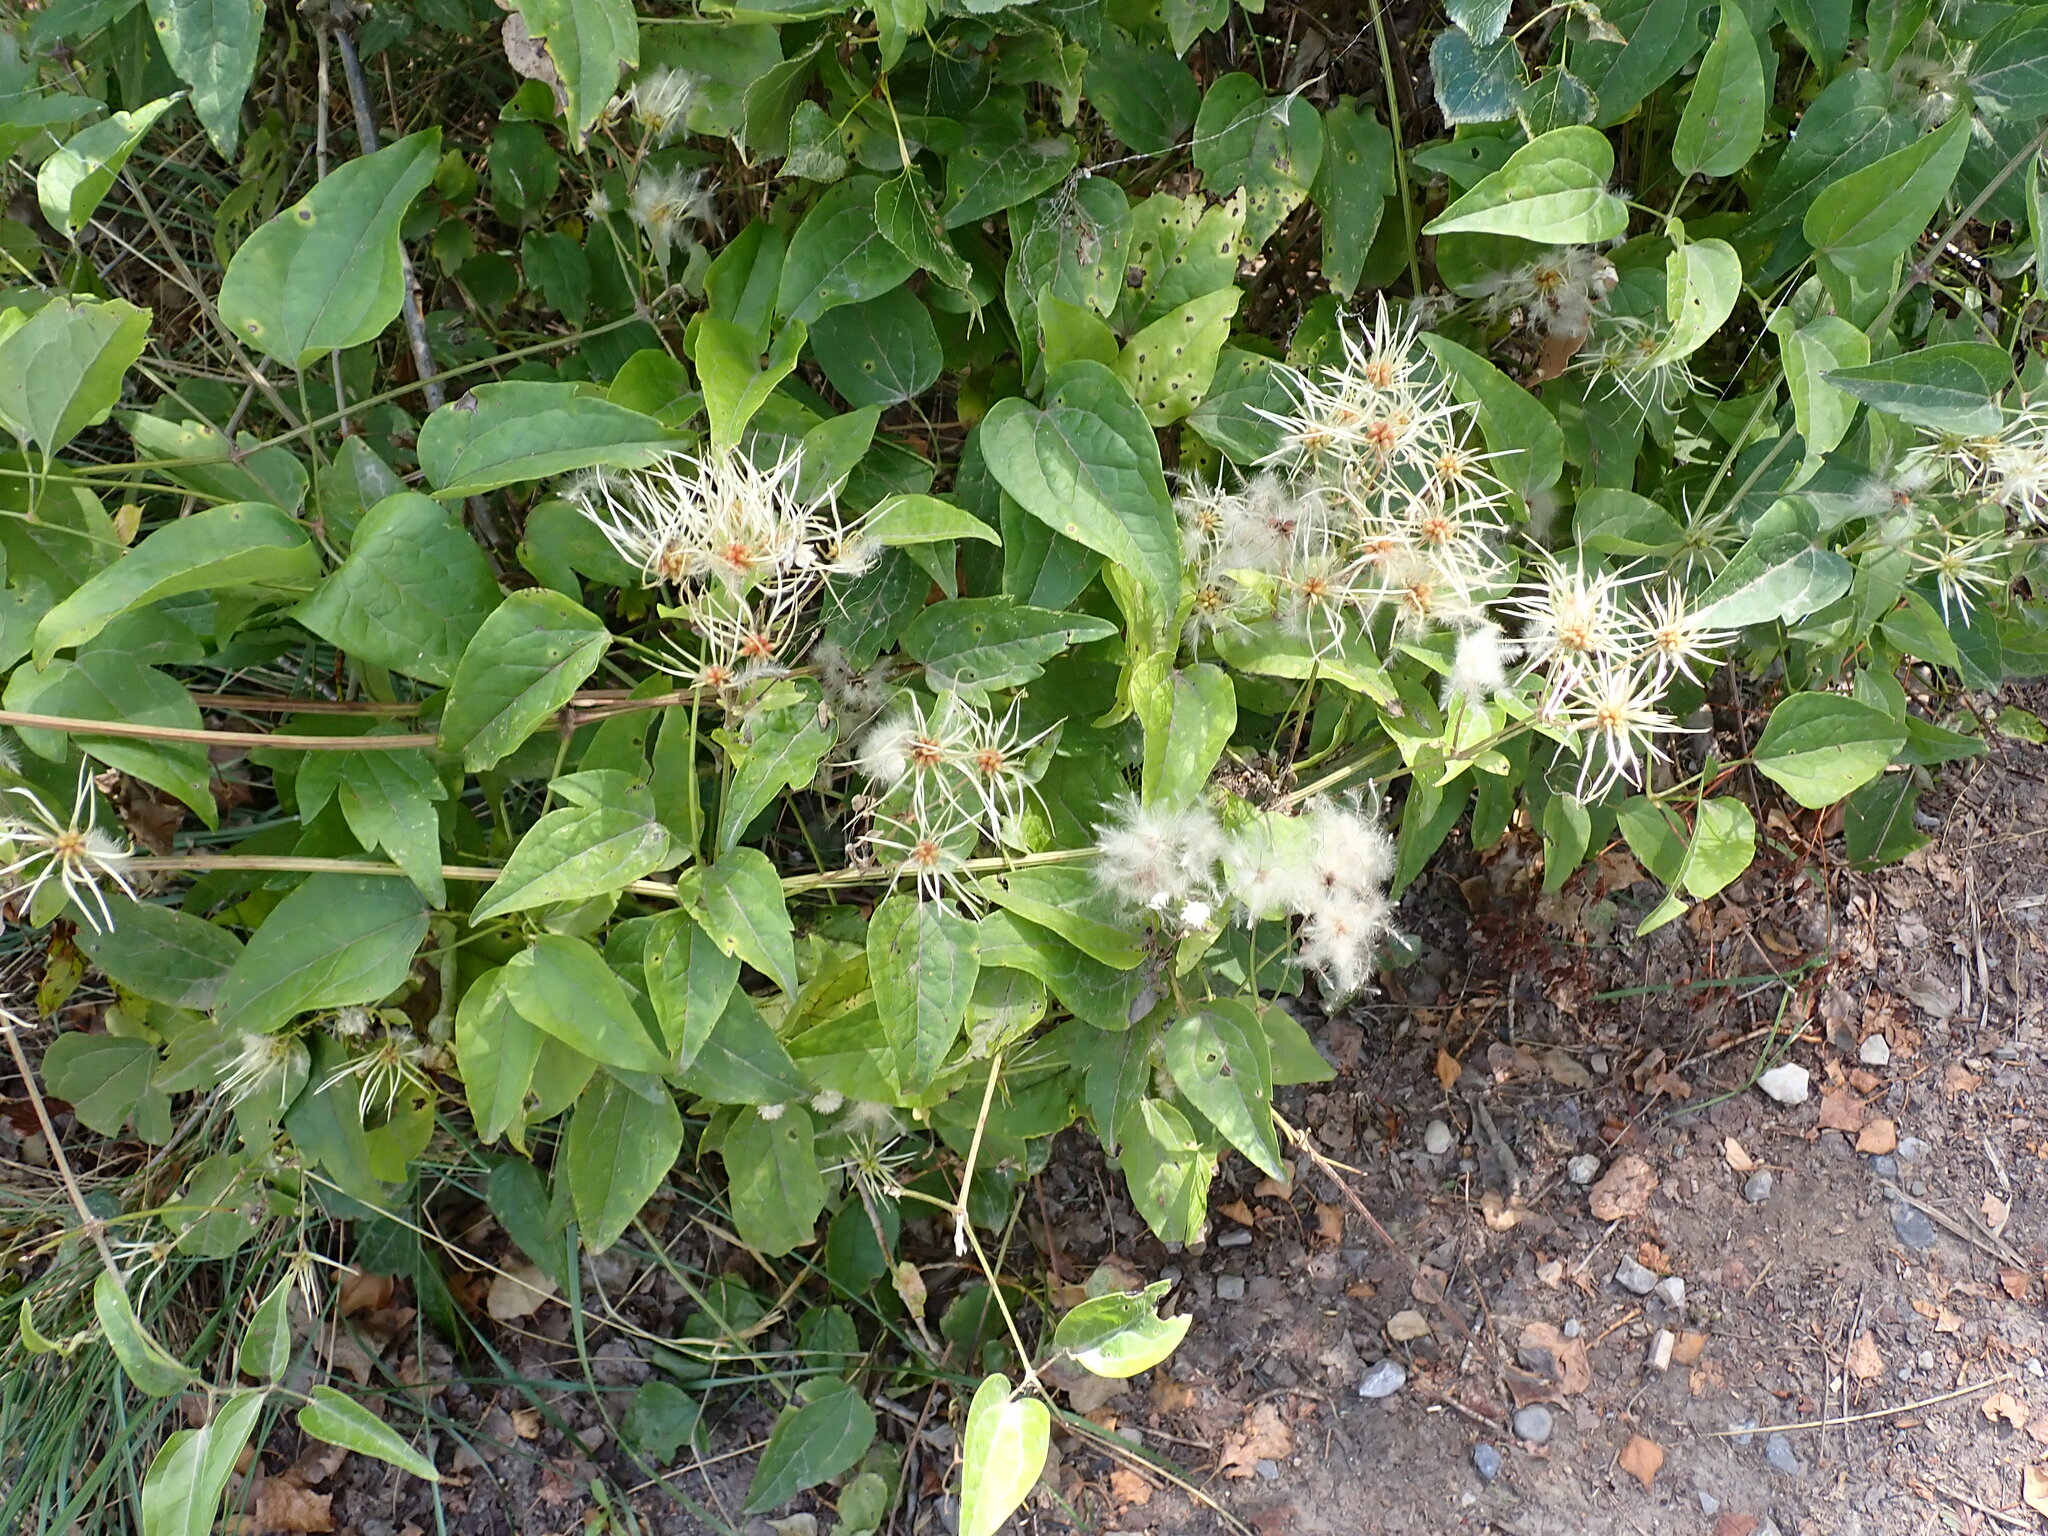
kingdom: Plantae
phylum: Tracheophyta
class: Magnoliopsida
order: Ranunculales
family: Ranunculaceae
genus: Clematis
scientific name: Clematis vitalba
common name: Evergreen clematis
